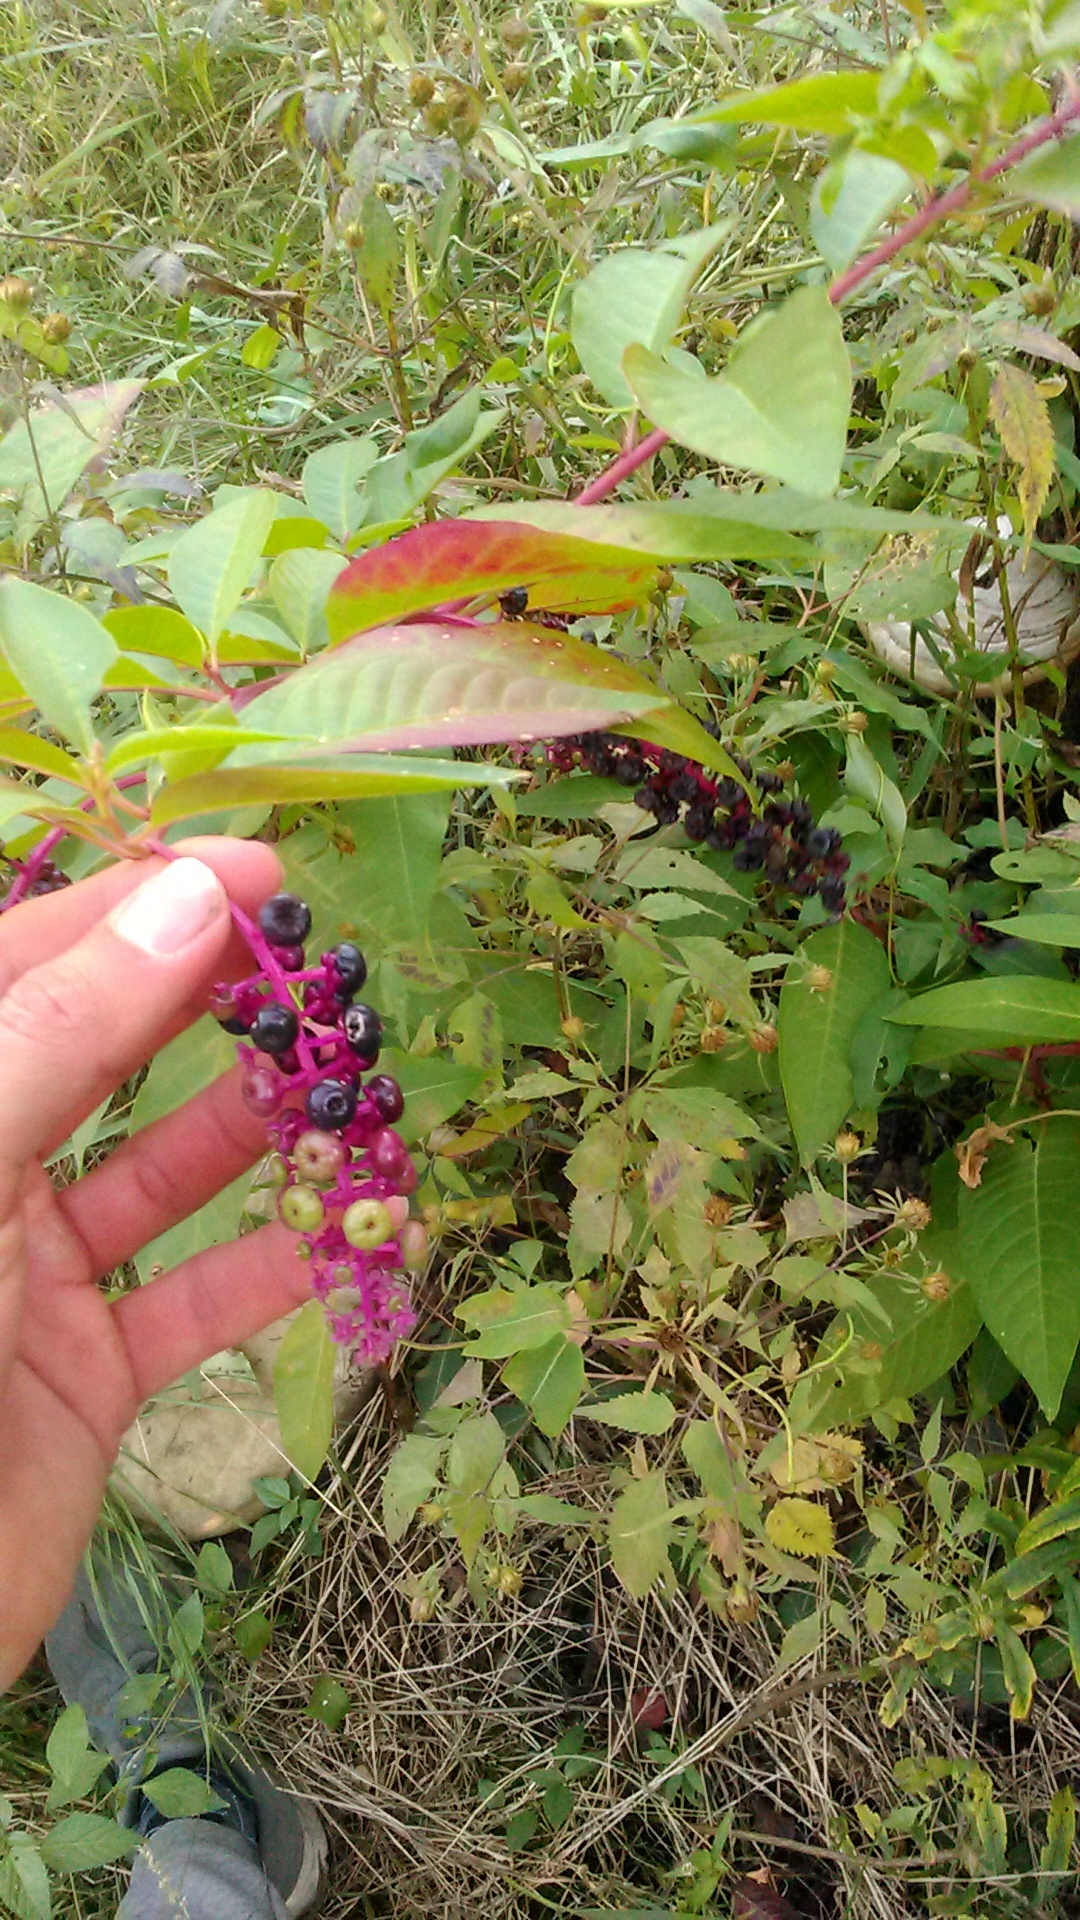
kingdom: Plantae
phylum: Tracheophyta
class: Magnoliopsida
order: Caryophyllales
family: Phytolaccaceae
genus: Phytolacca
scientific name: Phytolacca americana
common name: American pokeweed
